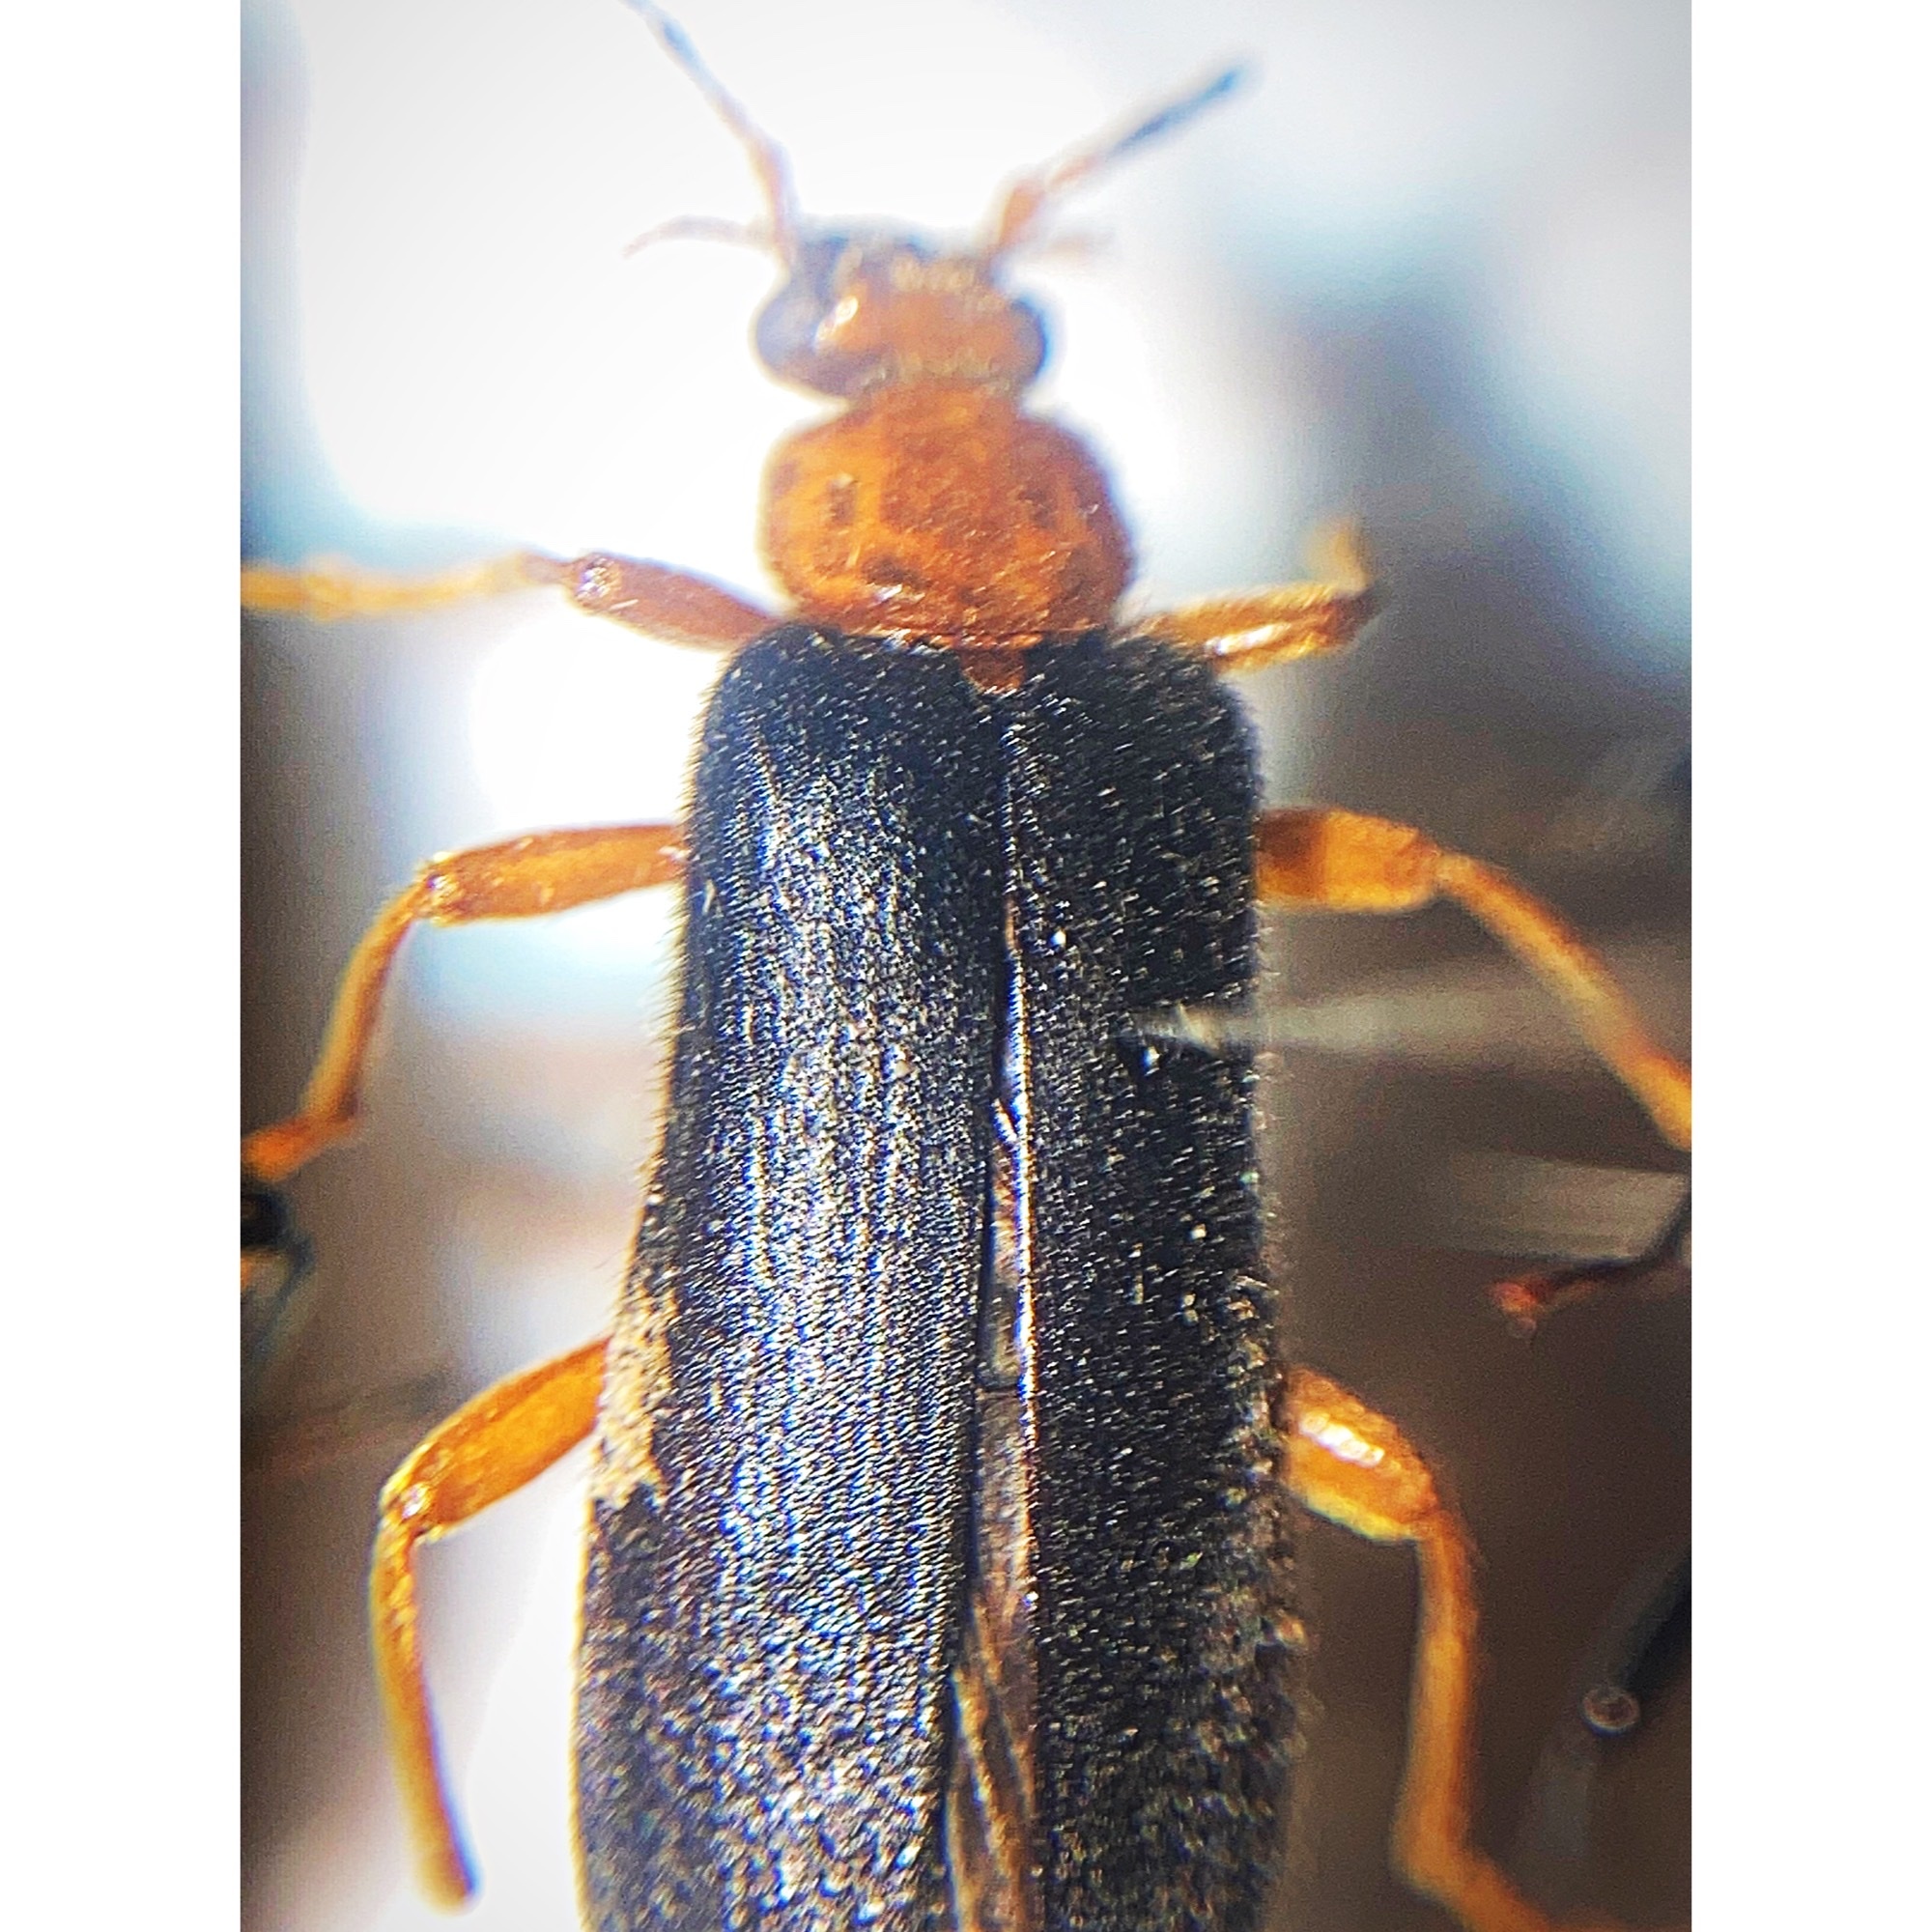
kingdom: Animalia
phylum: Arthropoda
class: Insecta
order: Coleoptera
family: Pyrochroidae
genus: Neopyrochroa
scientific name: Neopyrochroa flabellata
